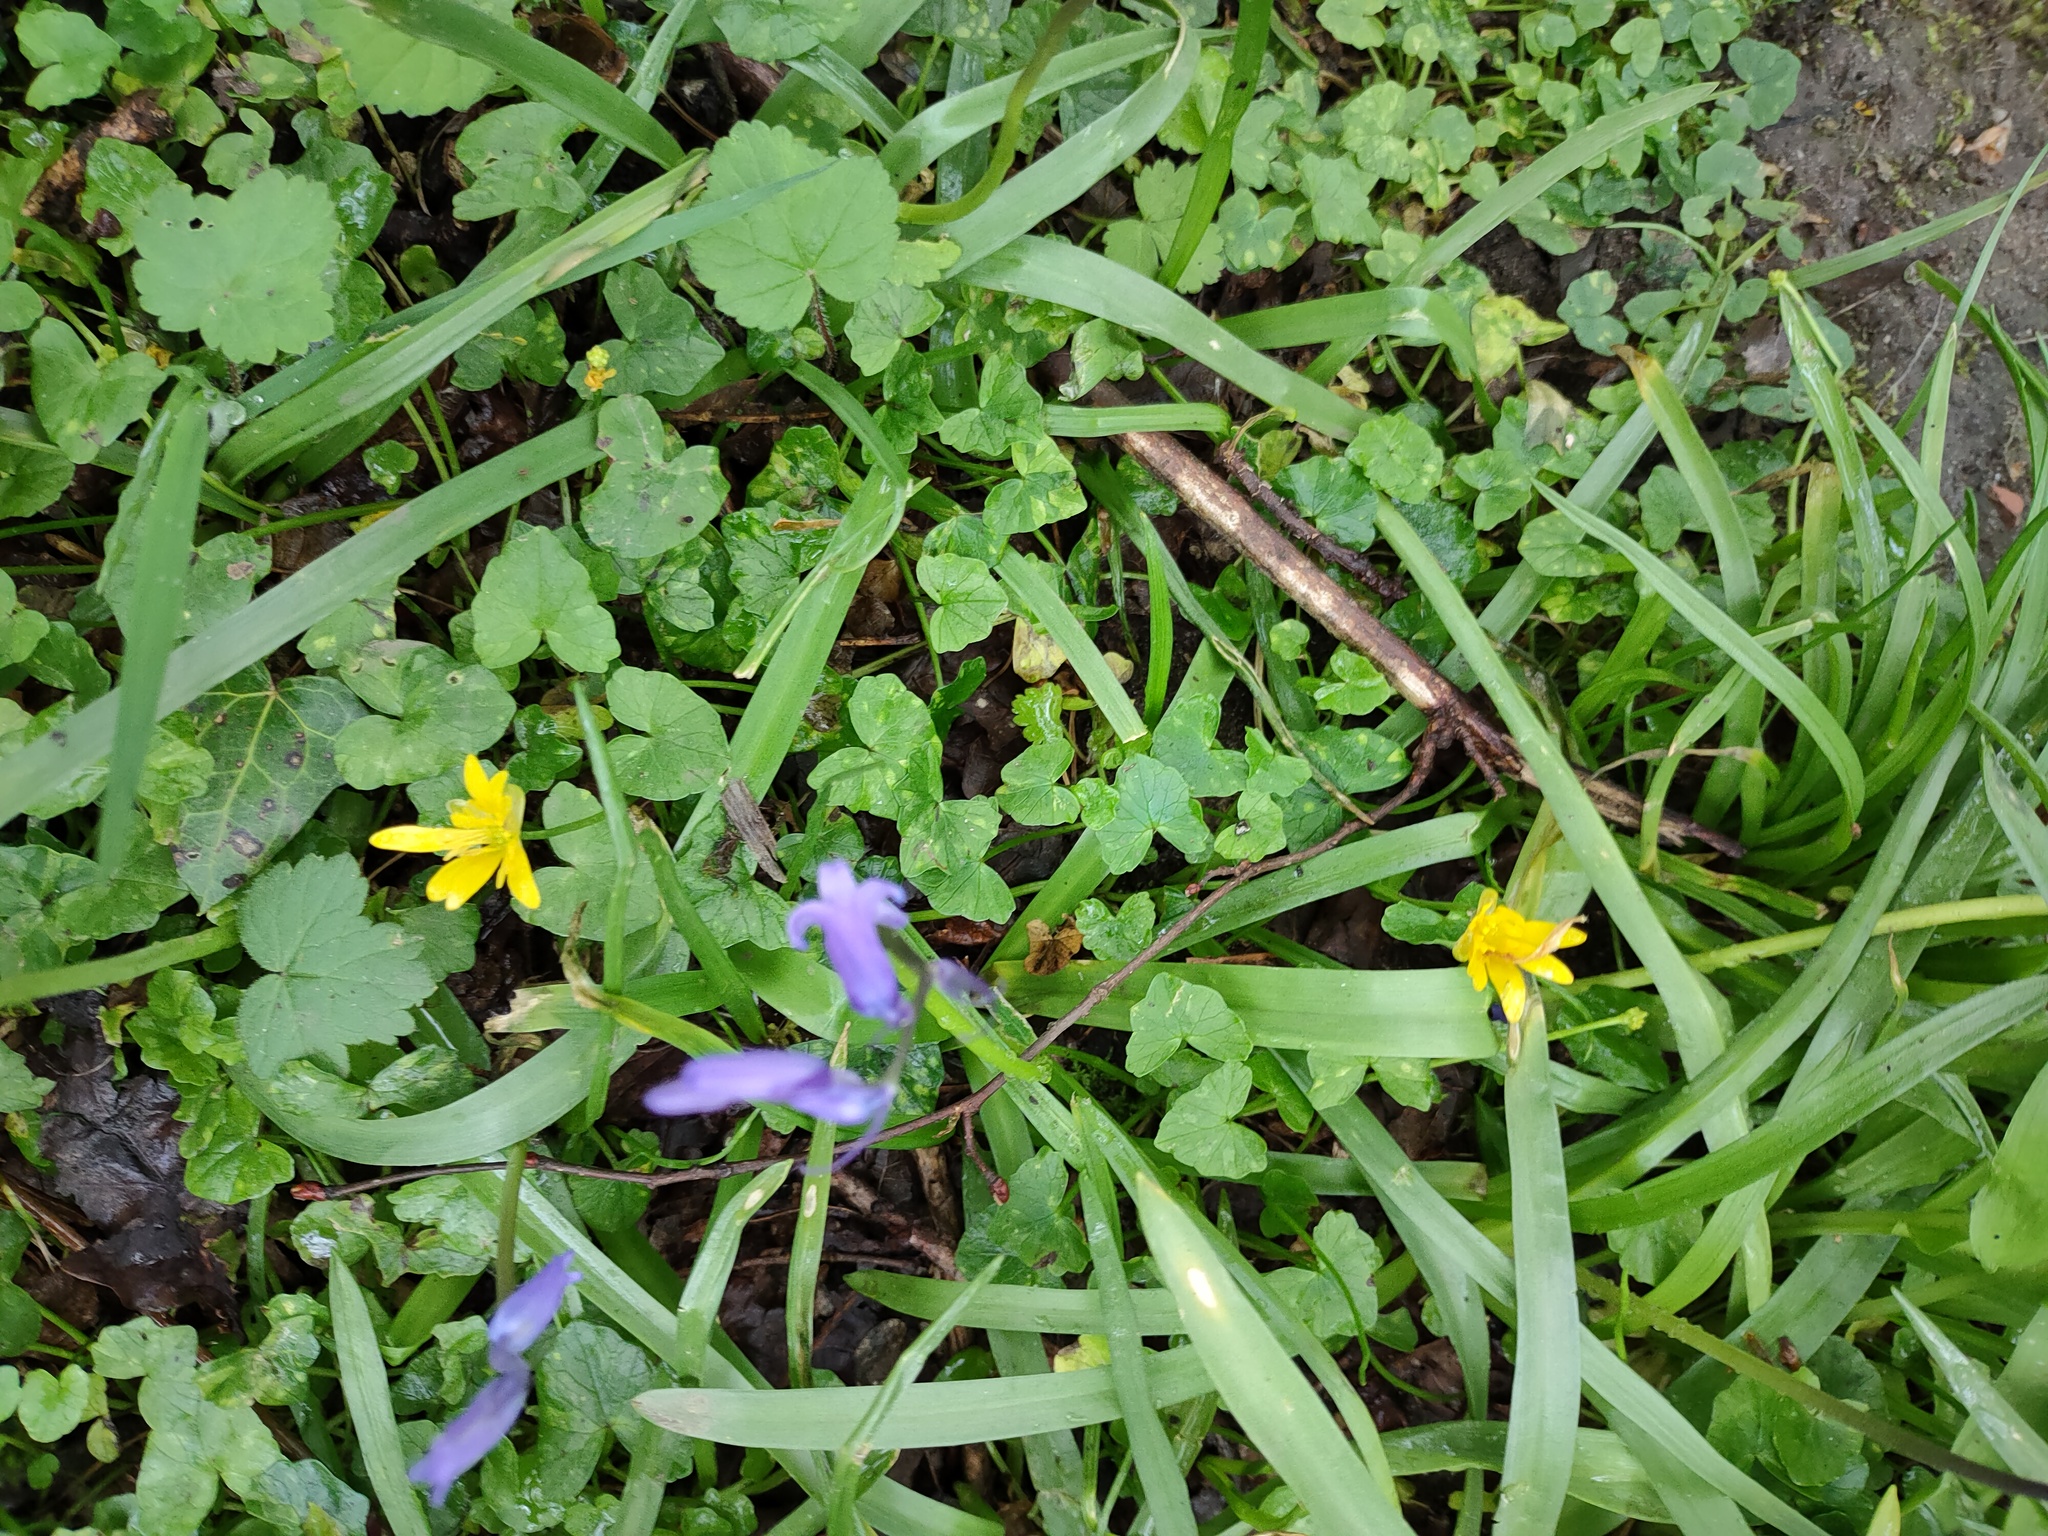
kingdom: Plantae
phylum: Tracheophyta
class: Magnoliopsida
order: Ranunculales
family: Ranunculaceae
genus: Ficaria
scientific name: Ficaria verna
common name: Lesser celandine
